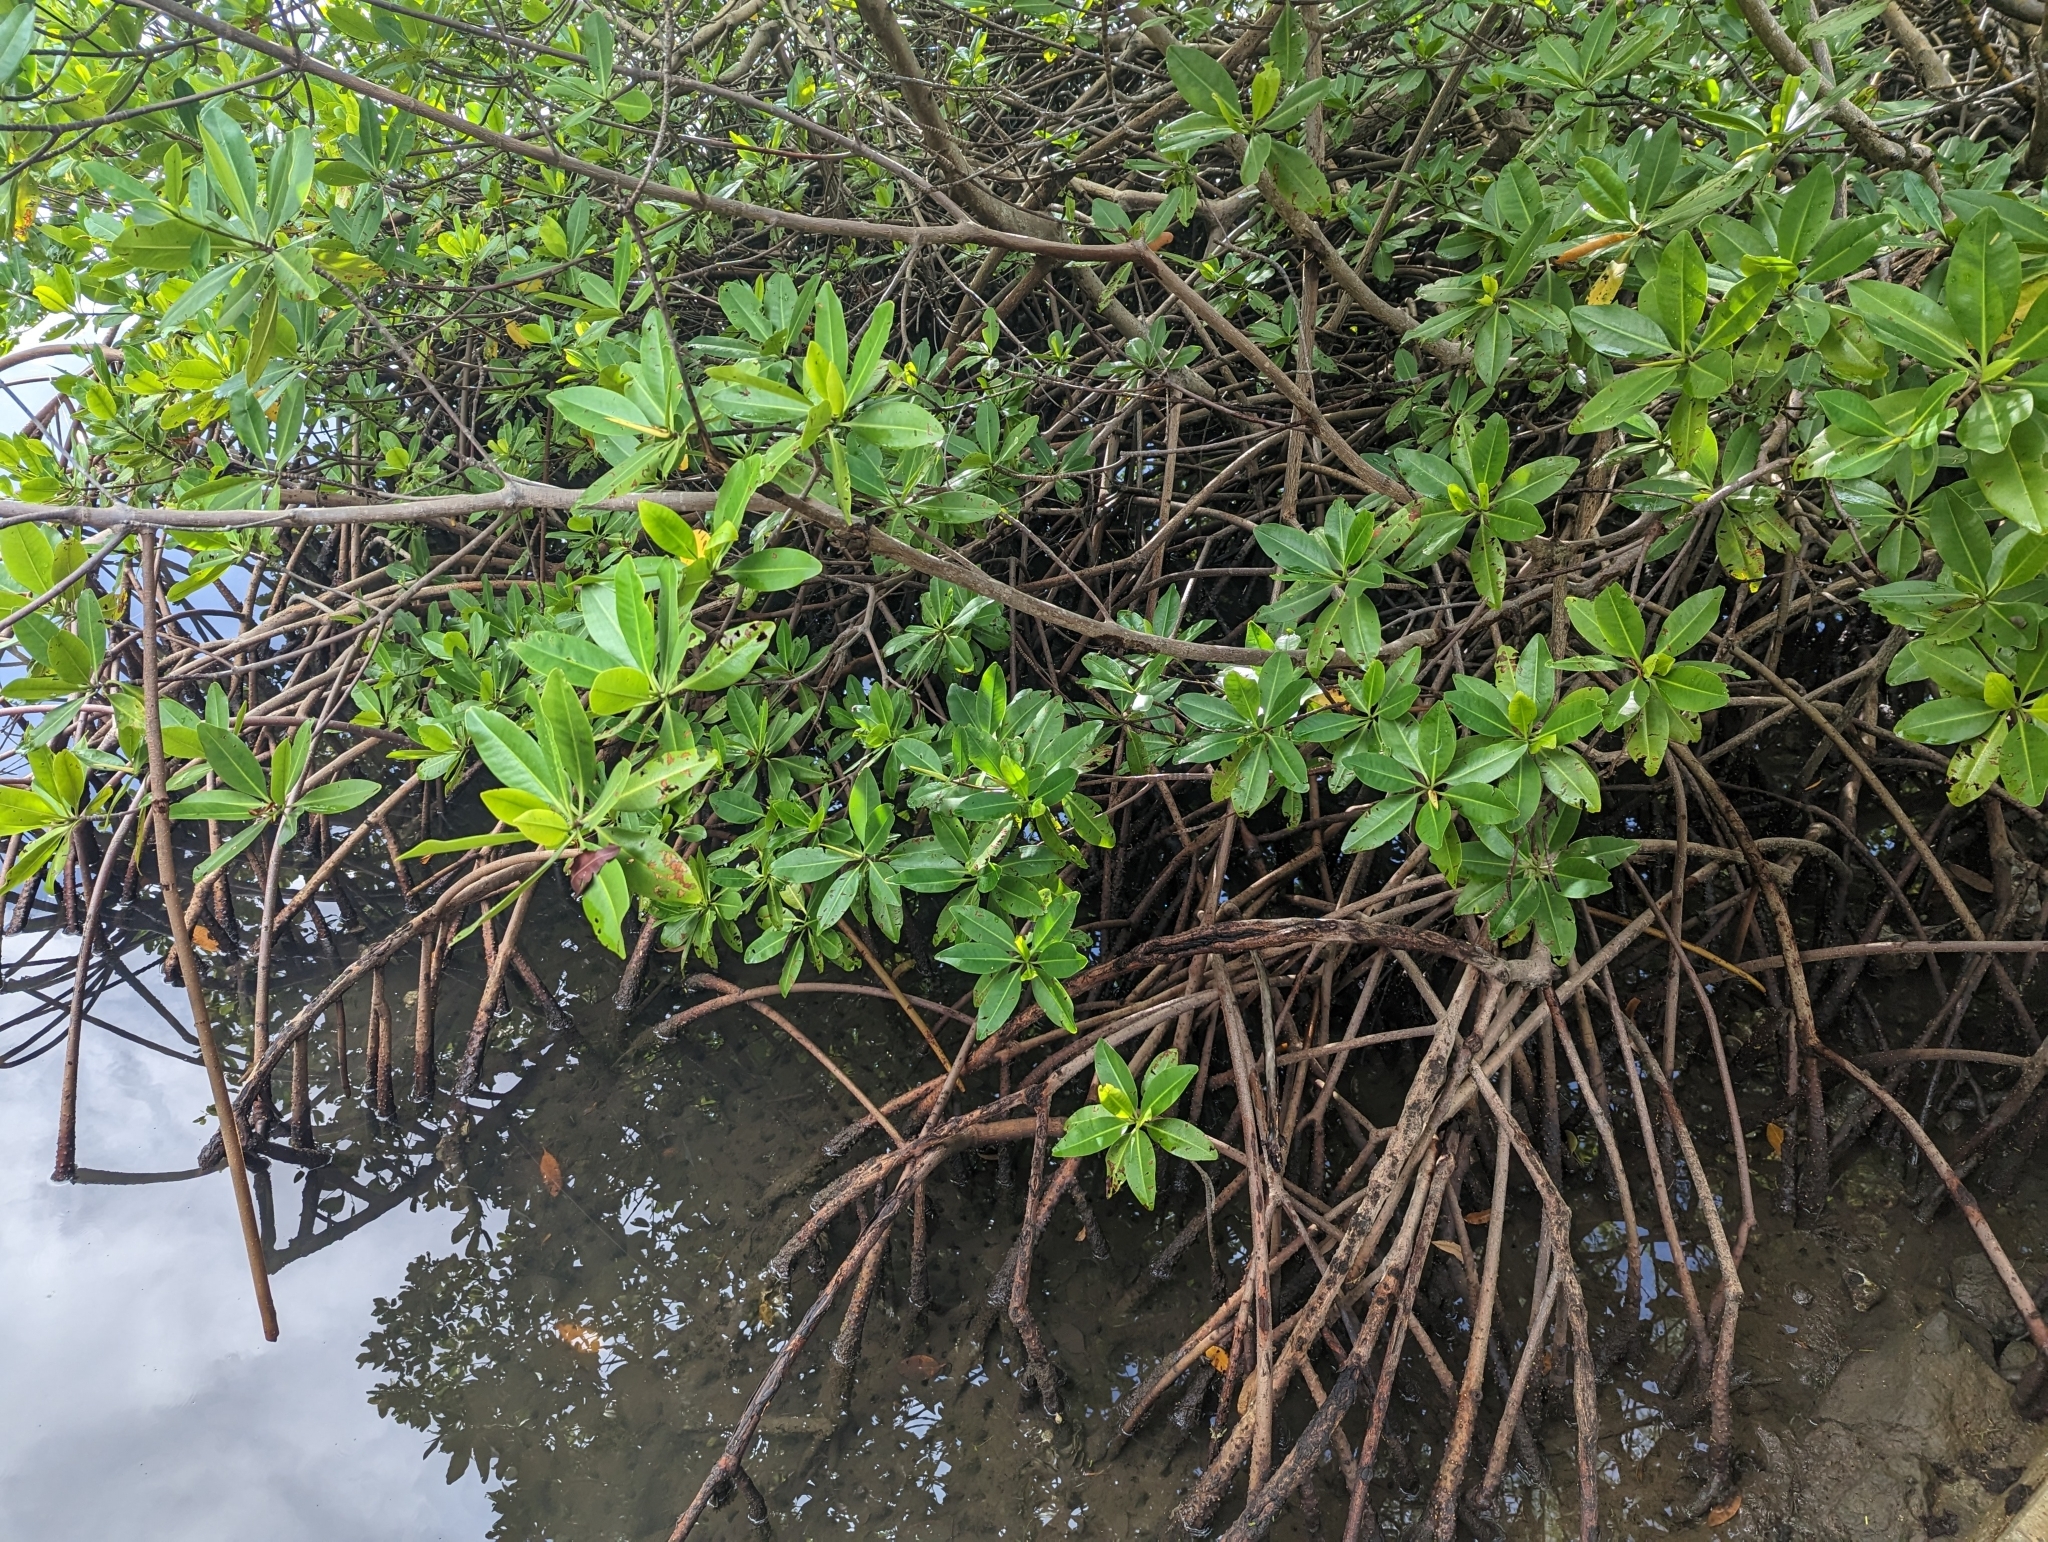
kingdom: Plantae
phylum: Tracheophyta
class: Magnoliopsida
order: Malpighiales
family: Rhizophoraceae
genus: Rhizophora
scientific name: Rhizophora mangle
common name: Red mangrove
